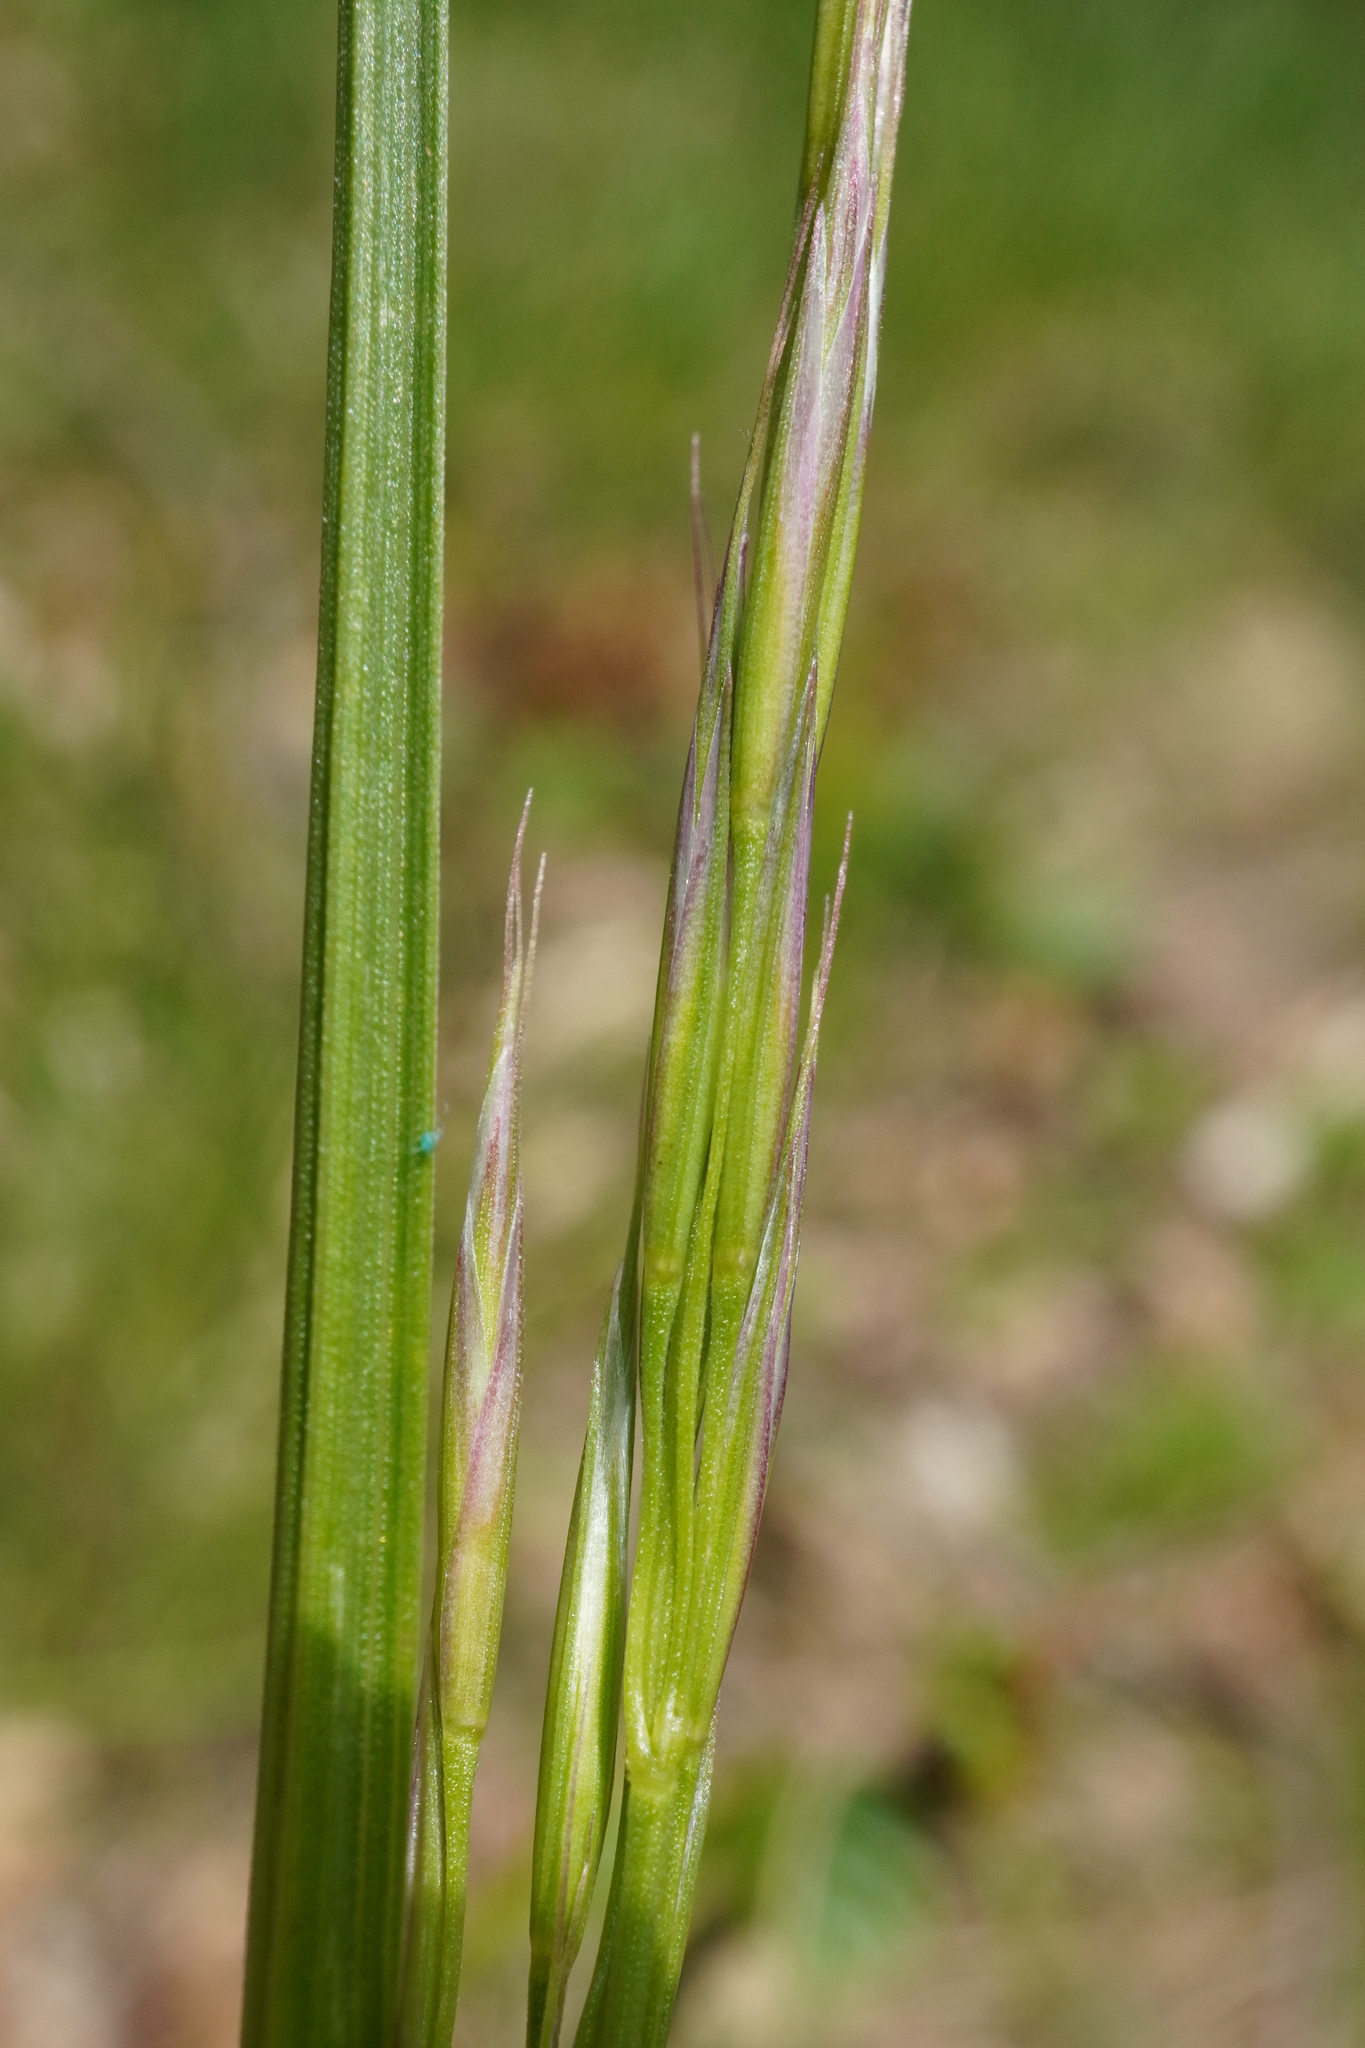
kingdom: Plantae
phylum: Tracheophyta
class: Liliopsida
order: Poales
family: Poaceae
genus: Bromus
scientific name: Bromus erectus
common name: Erect brome
